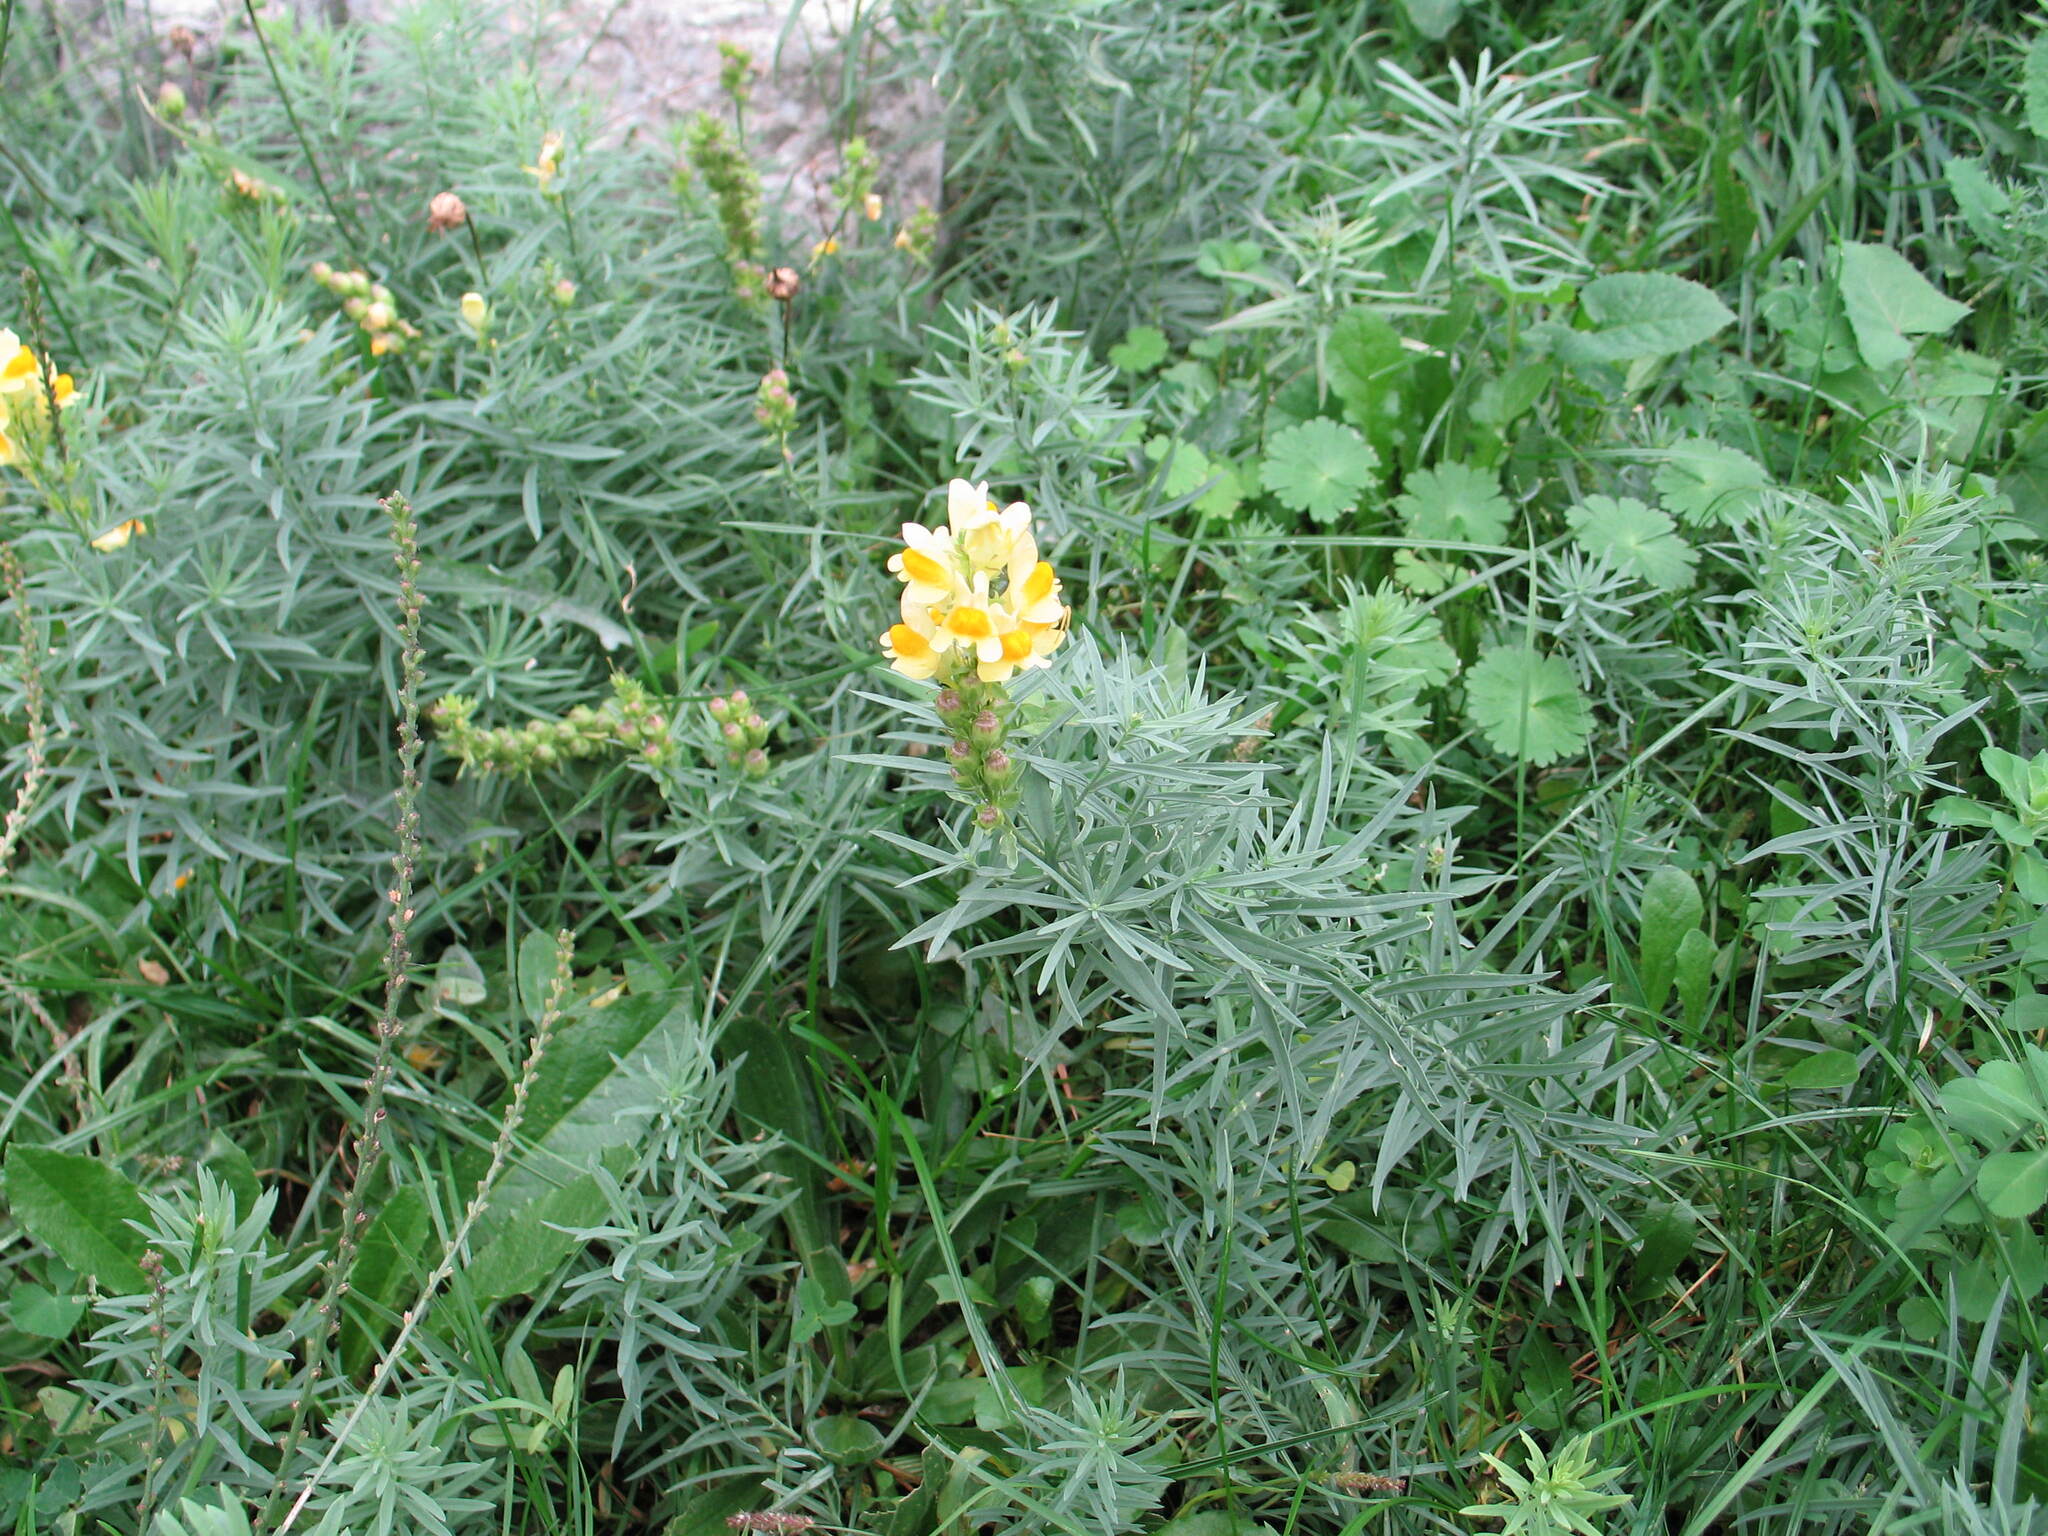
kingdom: Plantae
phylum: Tracheophyta
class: Magnoliopsida
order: Lamiales
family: Plantaginaceae
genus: Linaria
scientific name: Linaria vulgaris
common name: Butter and eggs
